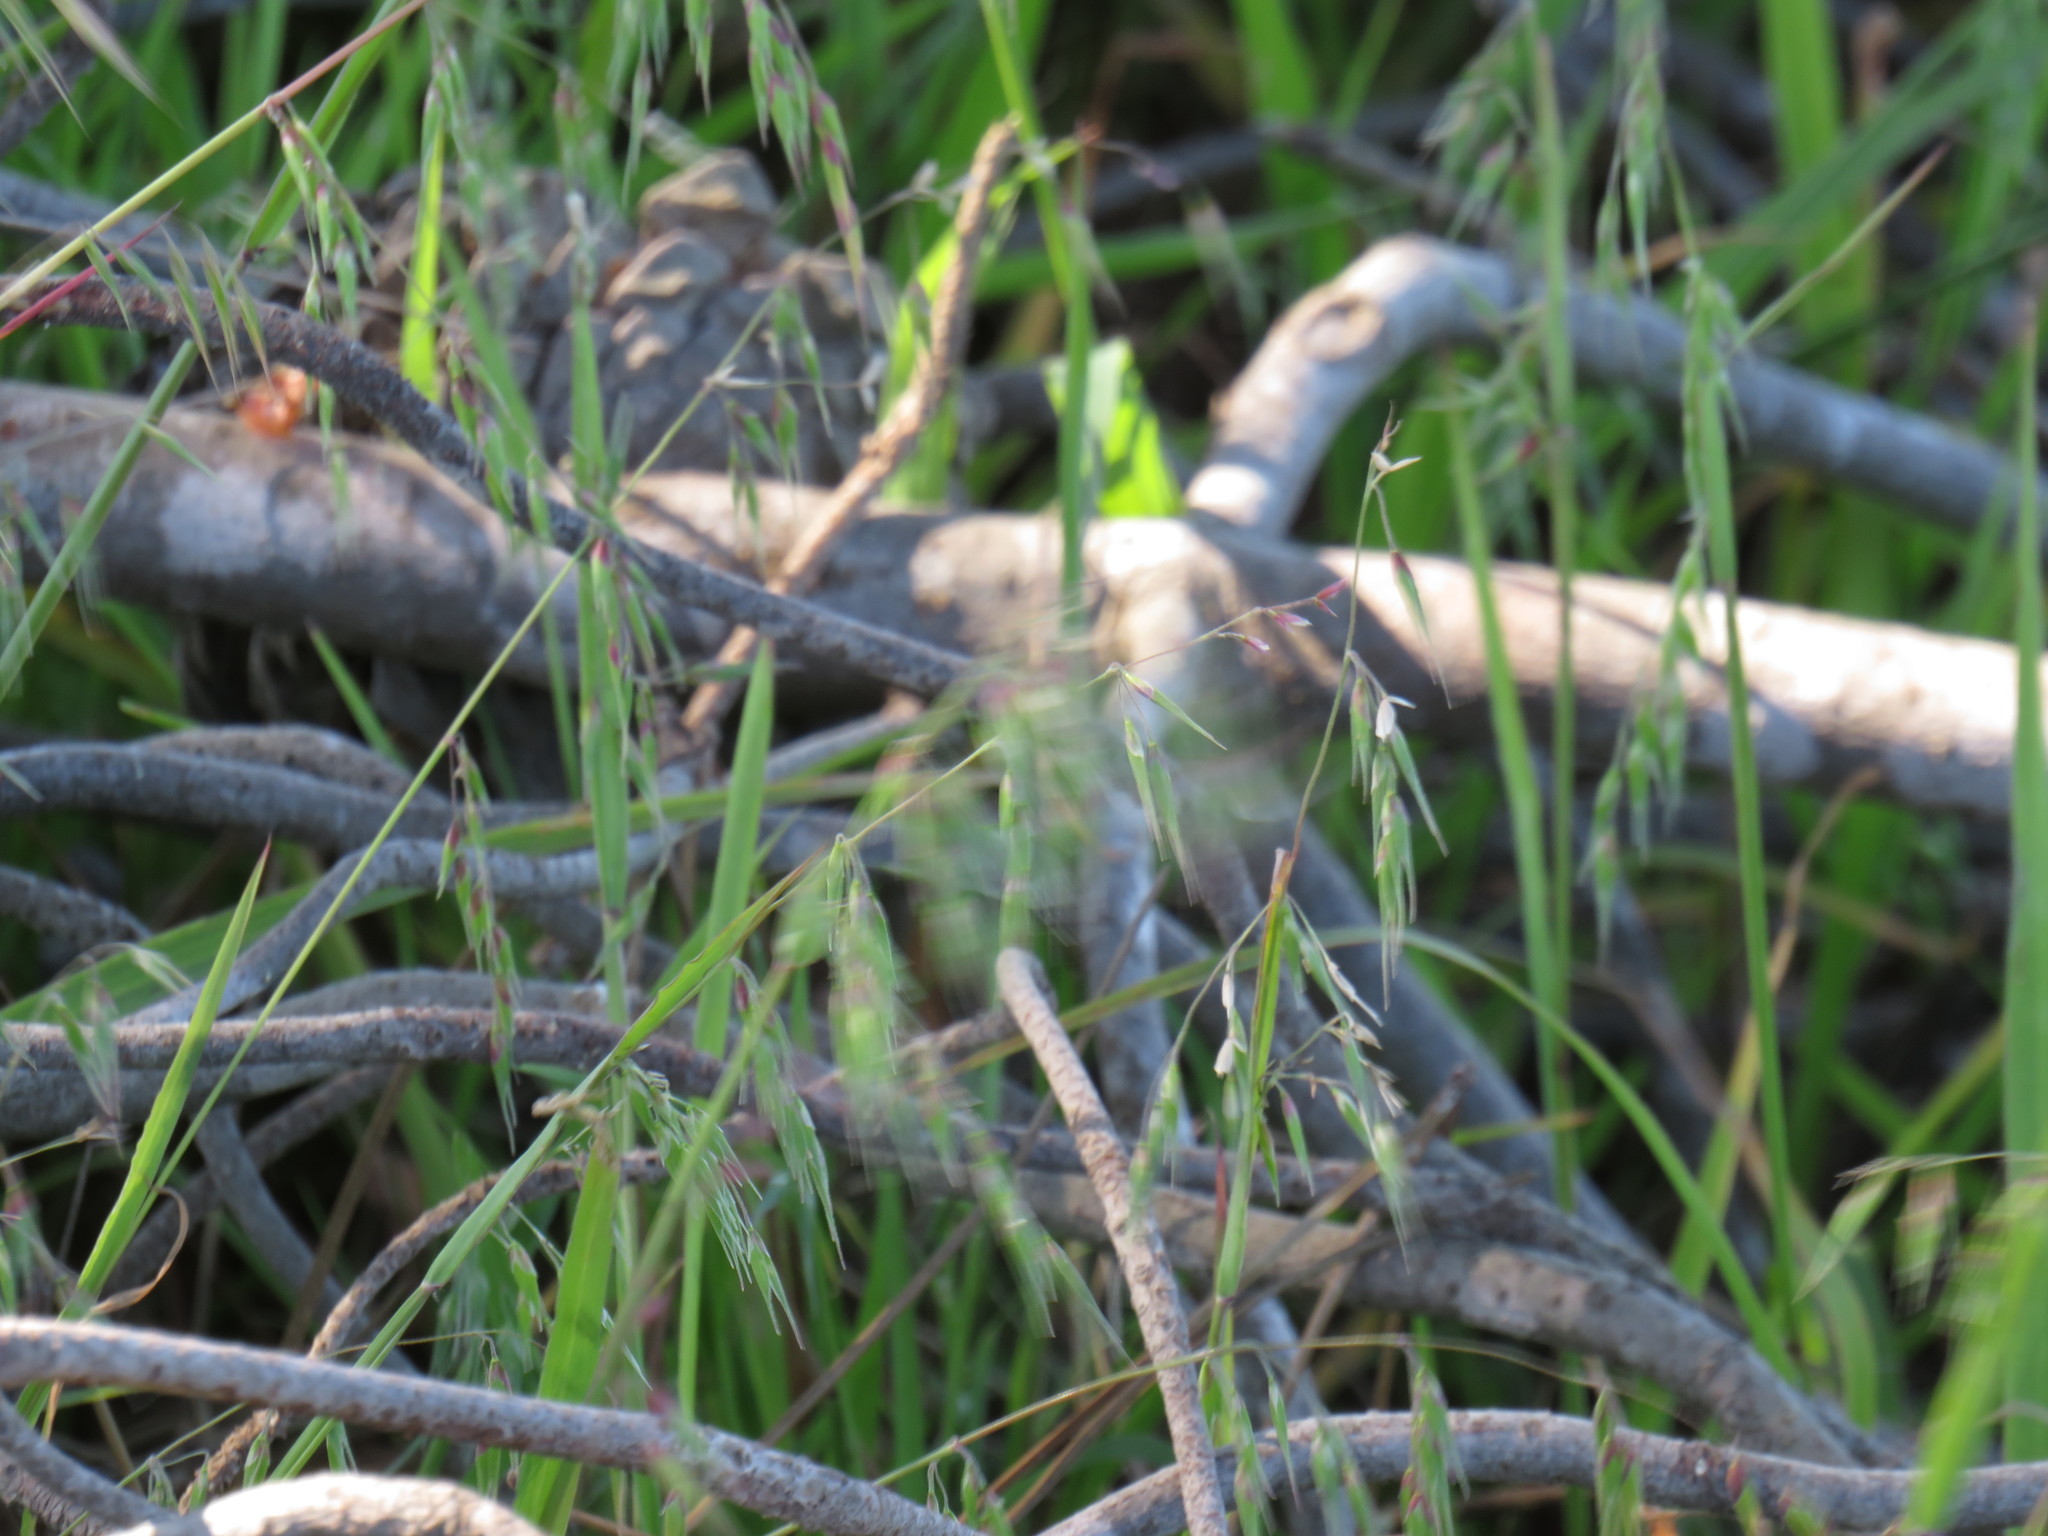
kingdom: Plantae
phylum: Tracheophyta
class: Liliopsida
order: Poales
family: Poaceae
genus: Avena
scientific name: Avena fatua
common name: Wild oat
